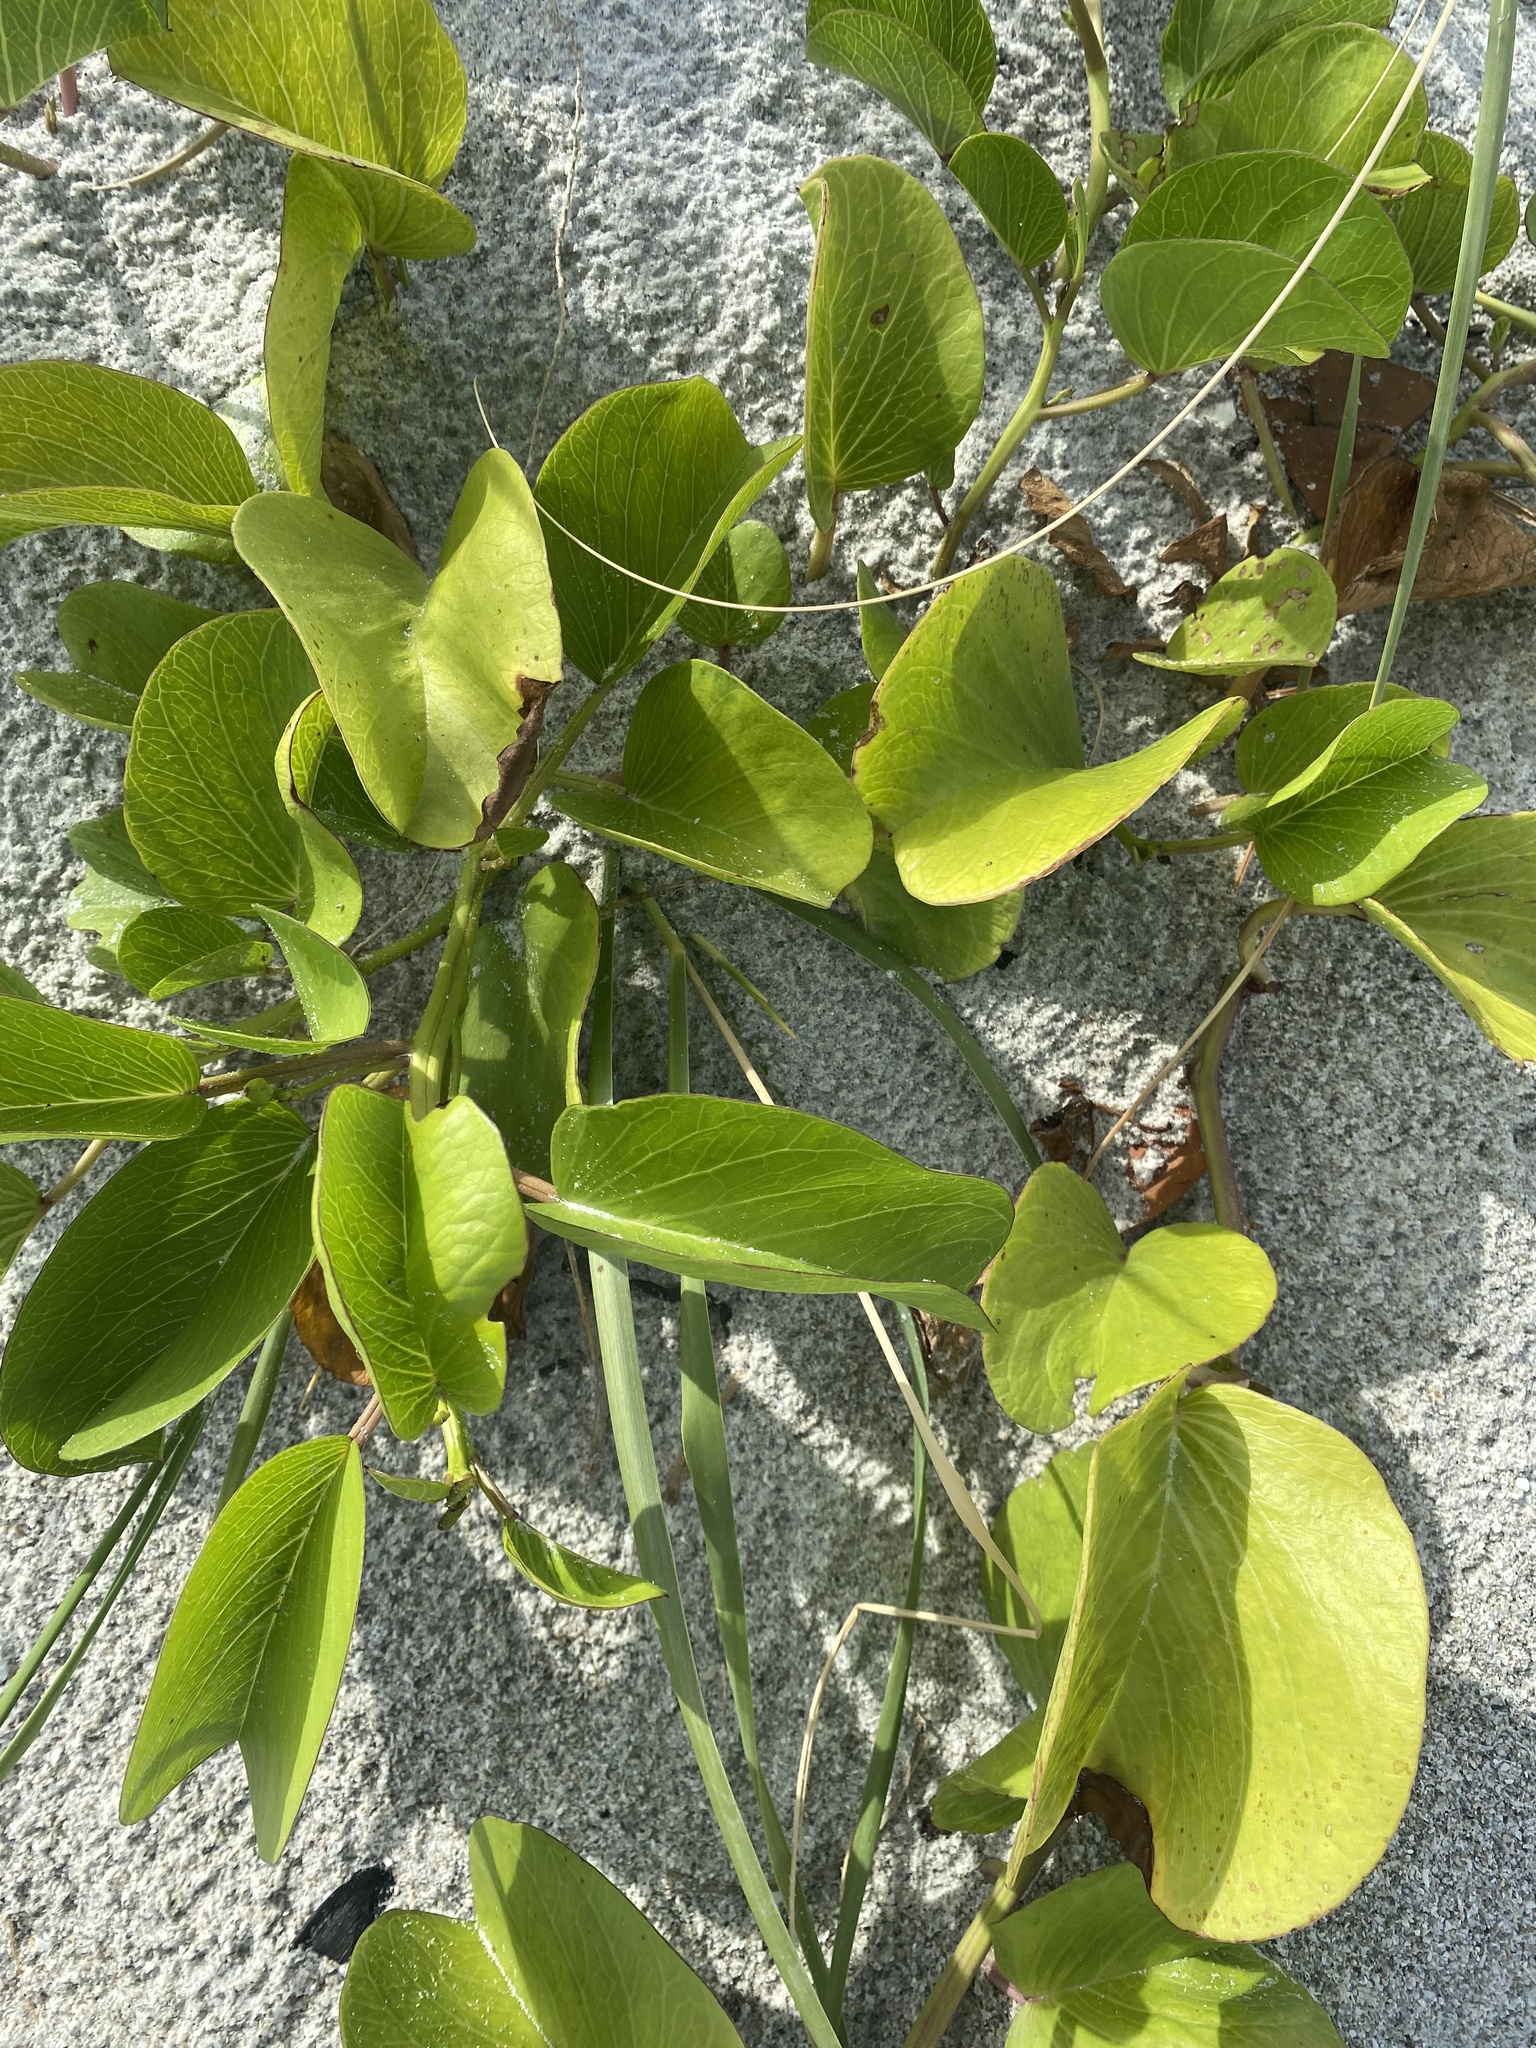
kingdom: Plantae
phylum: Tracheophyta
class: Magnoliopsida
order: Solanales
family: Convolvulaceae
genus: Ipomoea
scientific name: Ipomoea pes-caprae
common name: Beach morning glory
